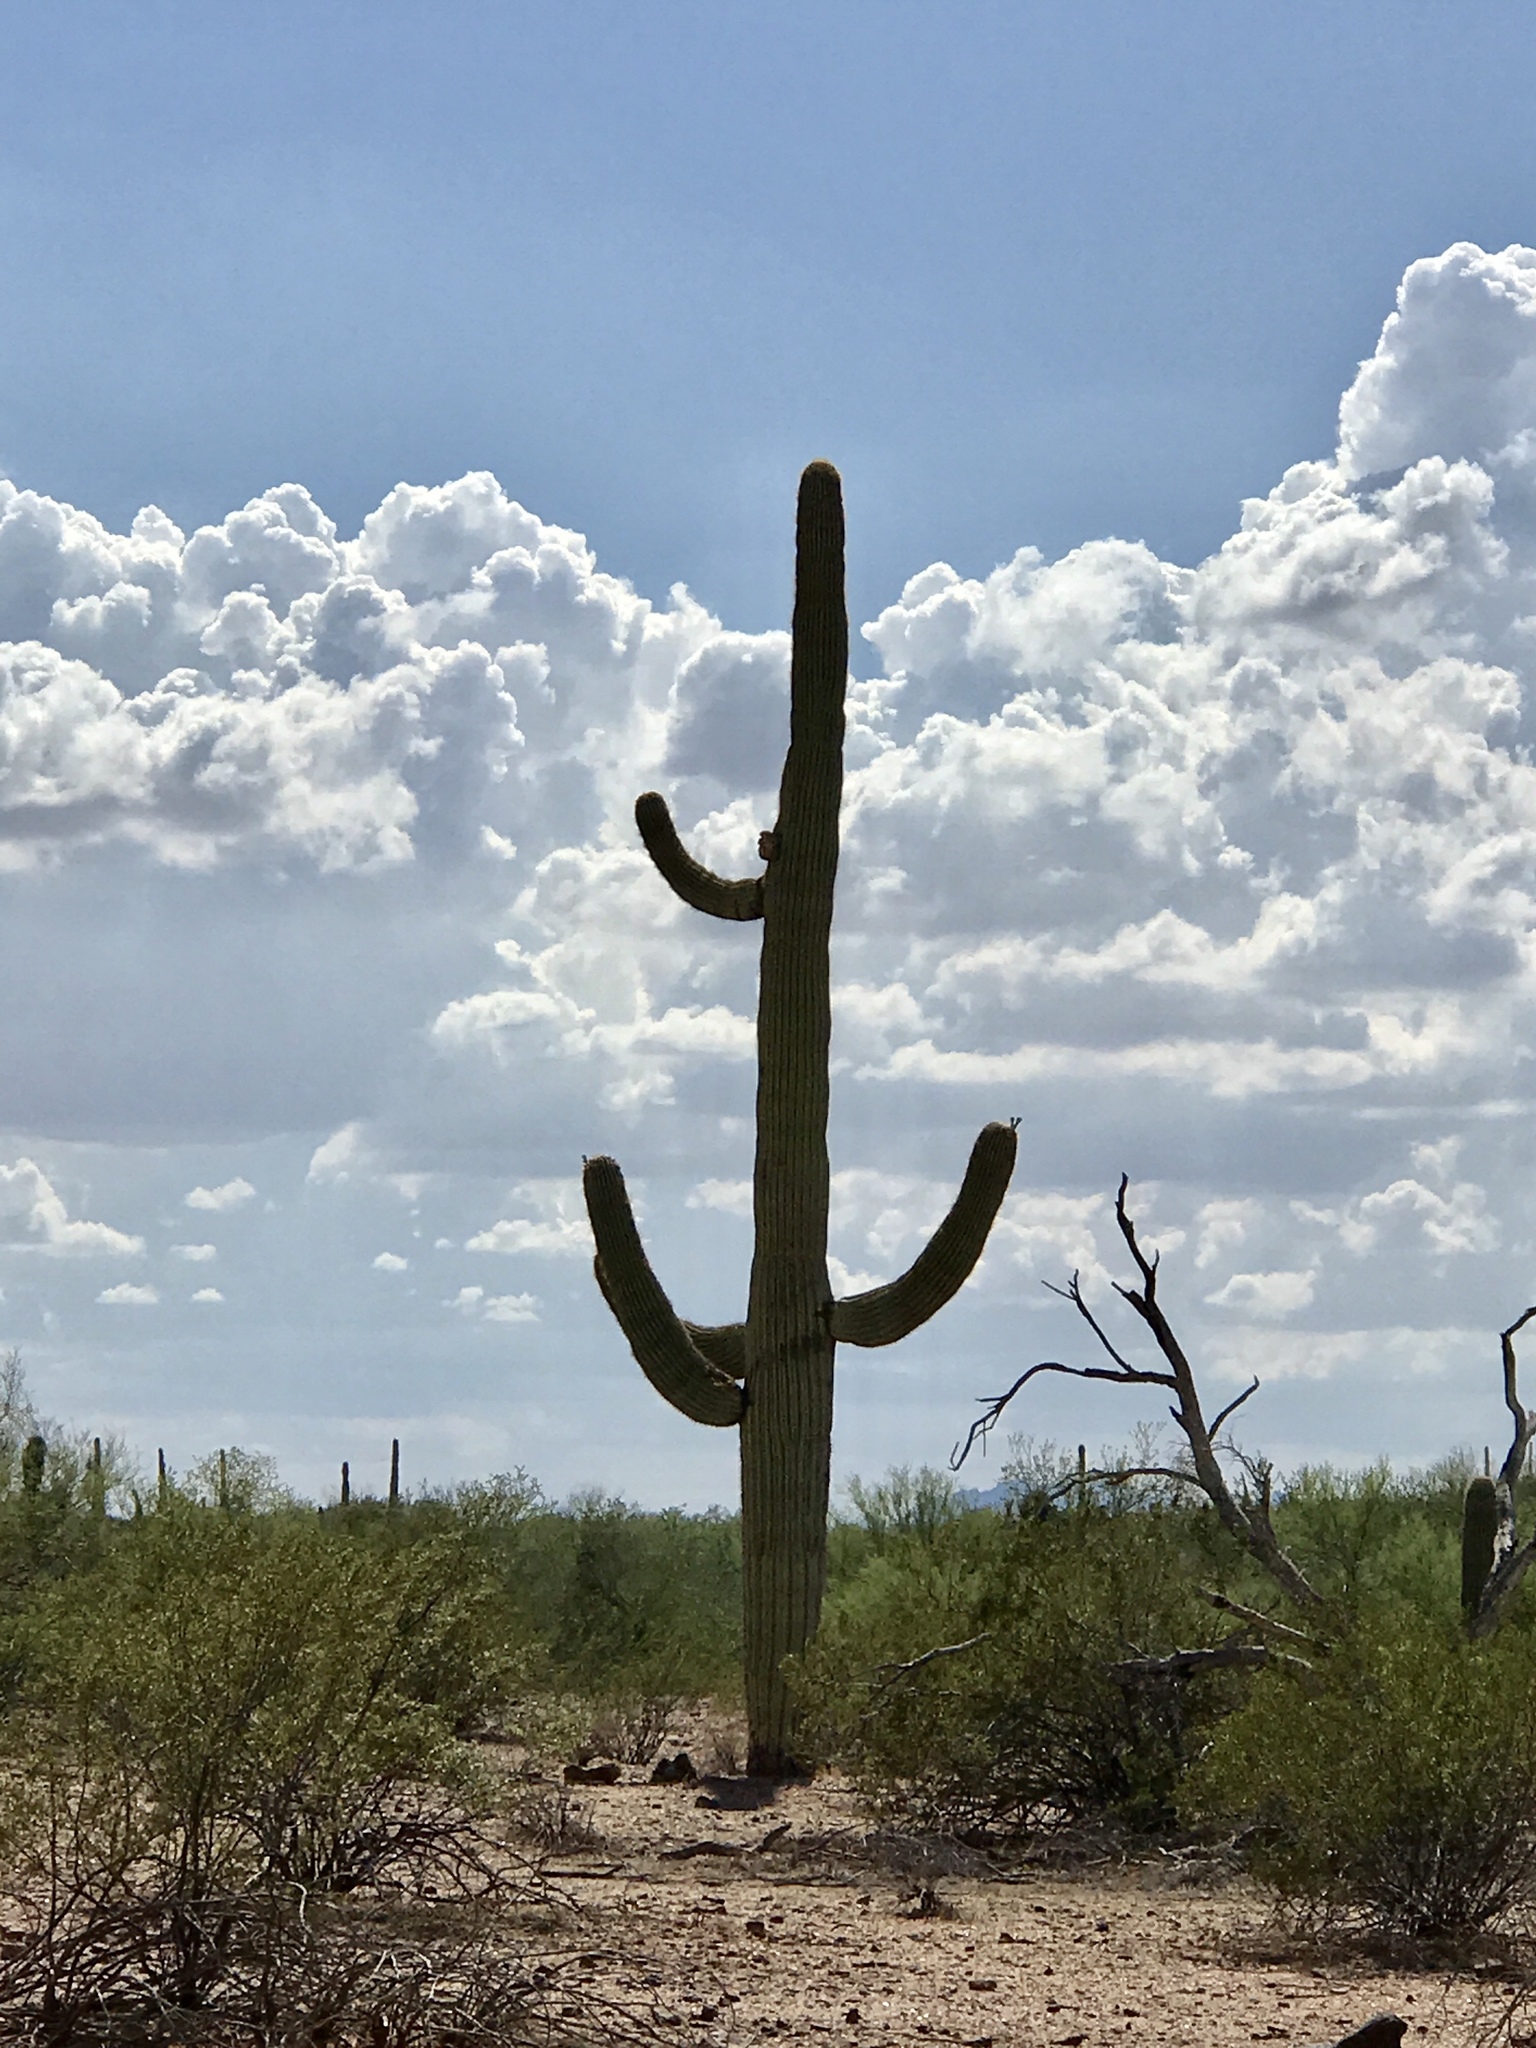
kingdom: Plantae
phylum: Tracheophyta
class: Magnoliopsida
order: Caryophyllales
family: Cactaceae
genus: Carnegiea
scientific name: Carnegiea gigantea
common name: Saguaro
